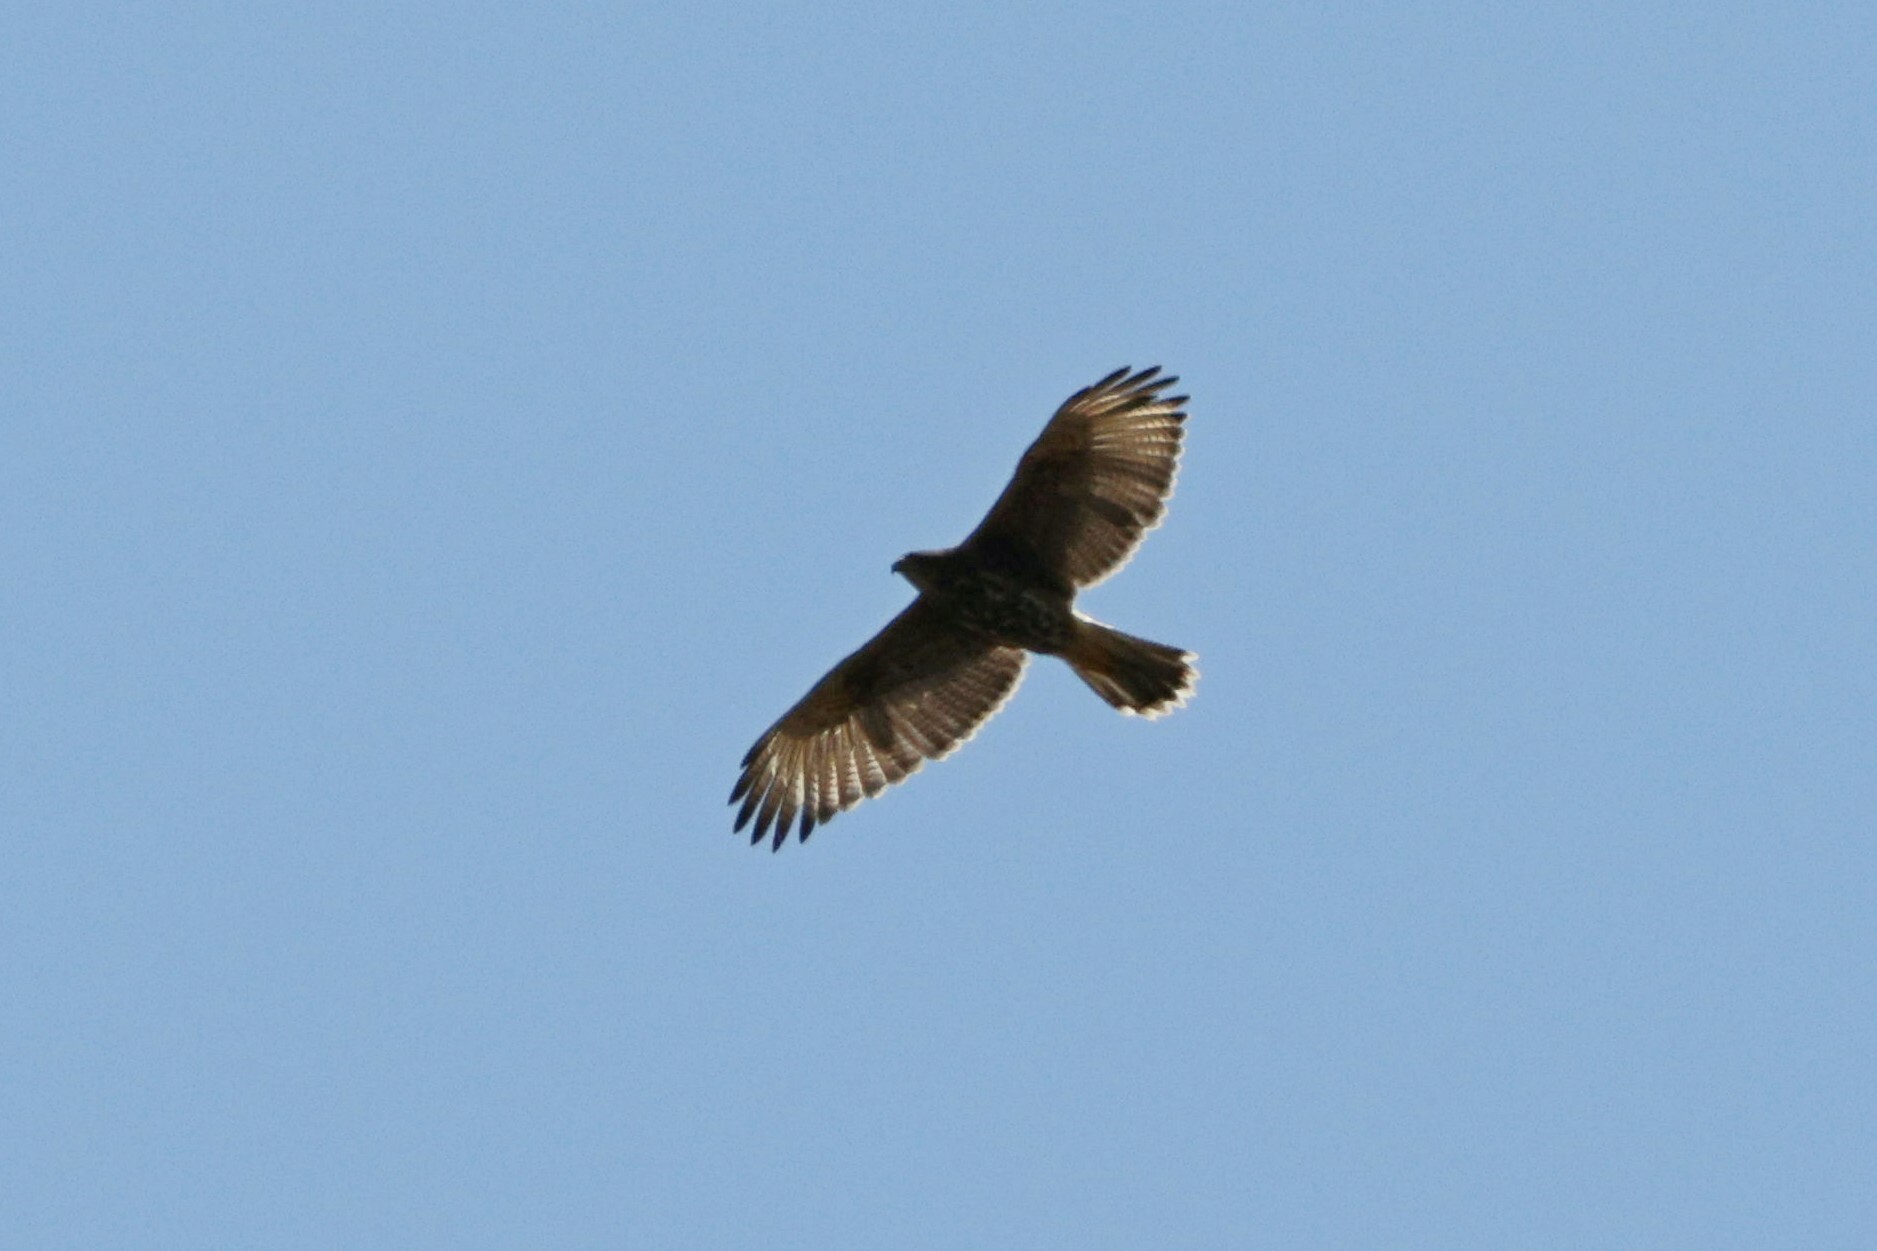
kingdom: Animalia
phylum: Chordata
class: Aves
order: Accipitriformes
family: Accipitridae
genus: Parabuteo
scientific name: Parabuteo unicinctus
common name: Harris's hawk
